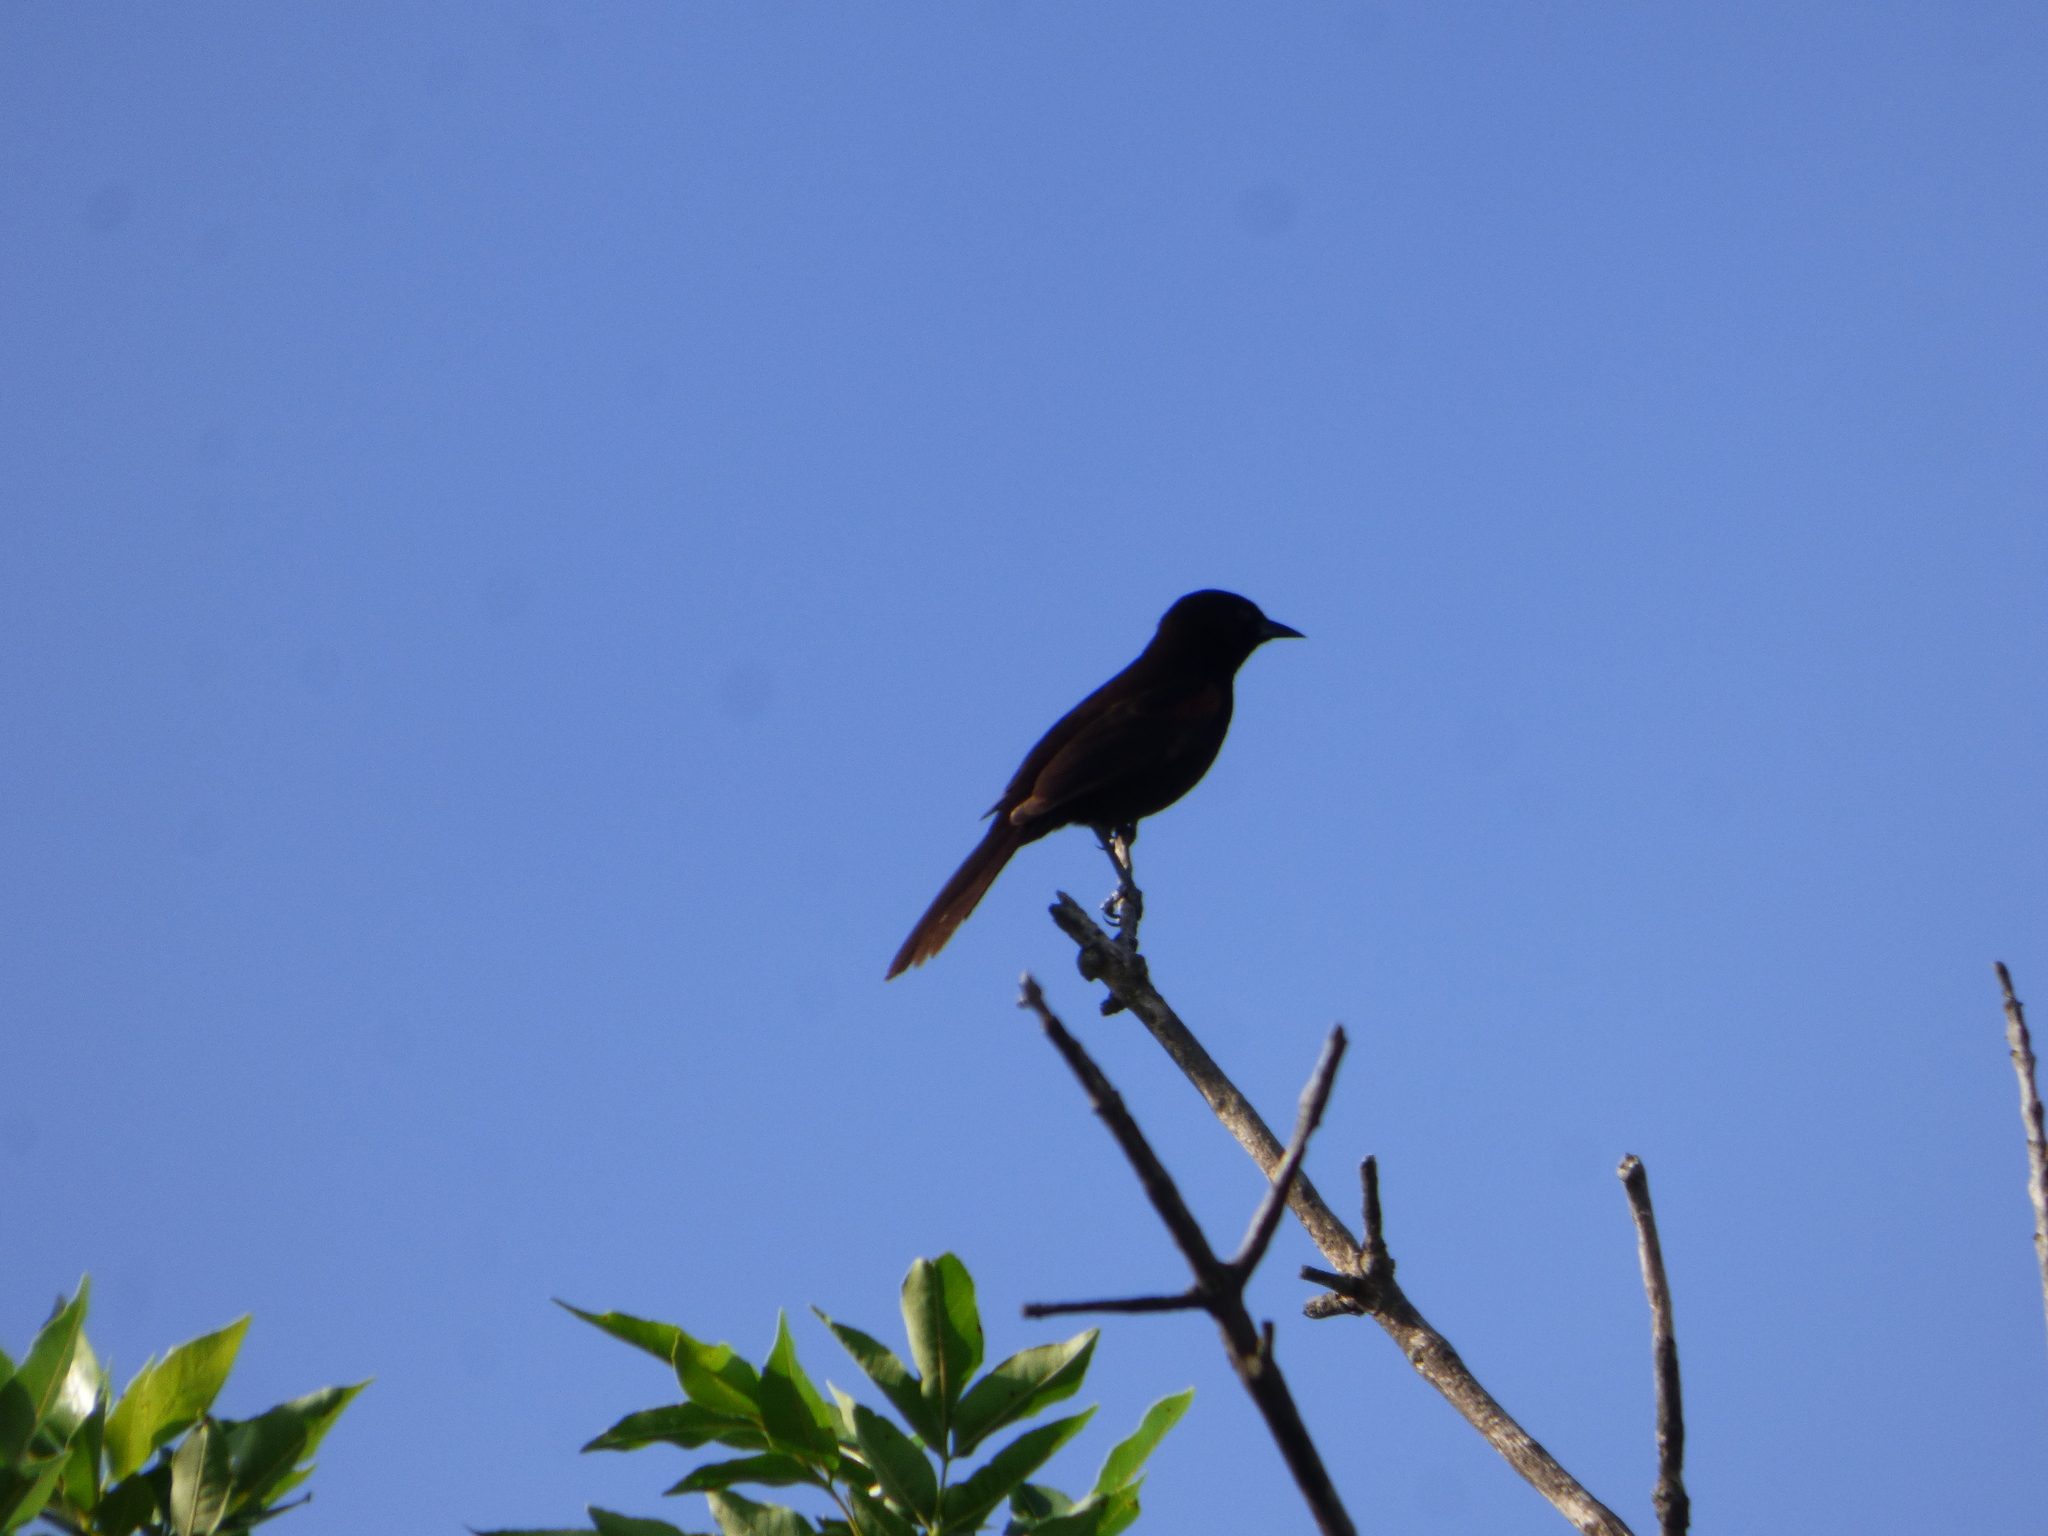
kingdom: Animalia
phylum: Chordata
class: Aves
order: Passeriformes
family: Icteridae
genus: Icterus
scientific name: Icterus cayanensis
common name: Epaulet oriole
